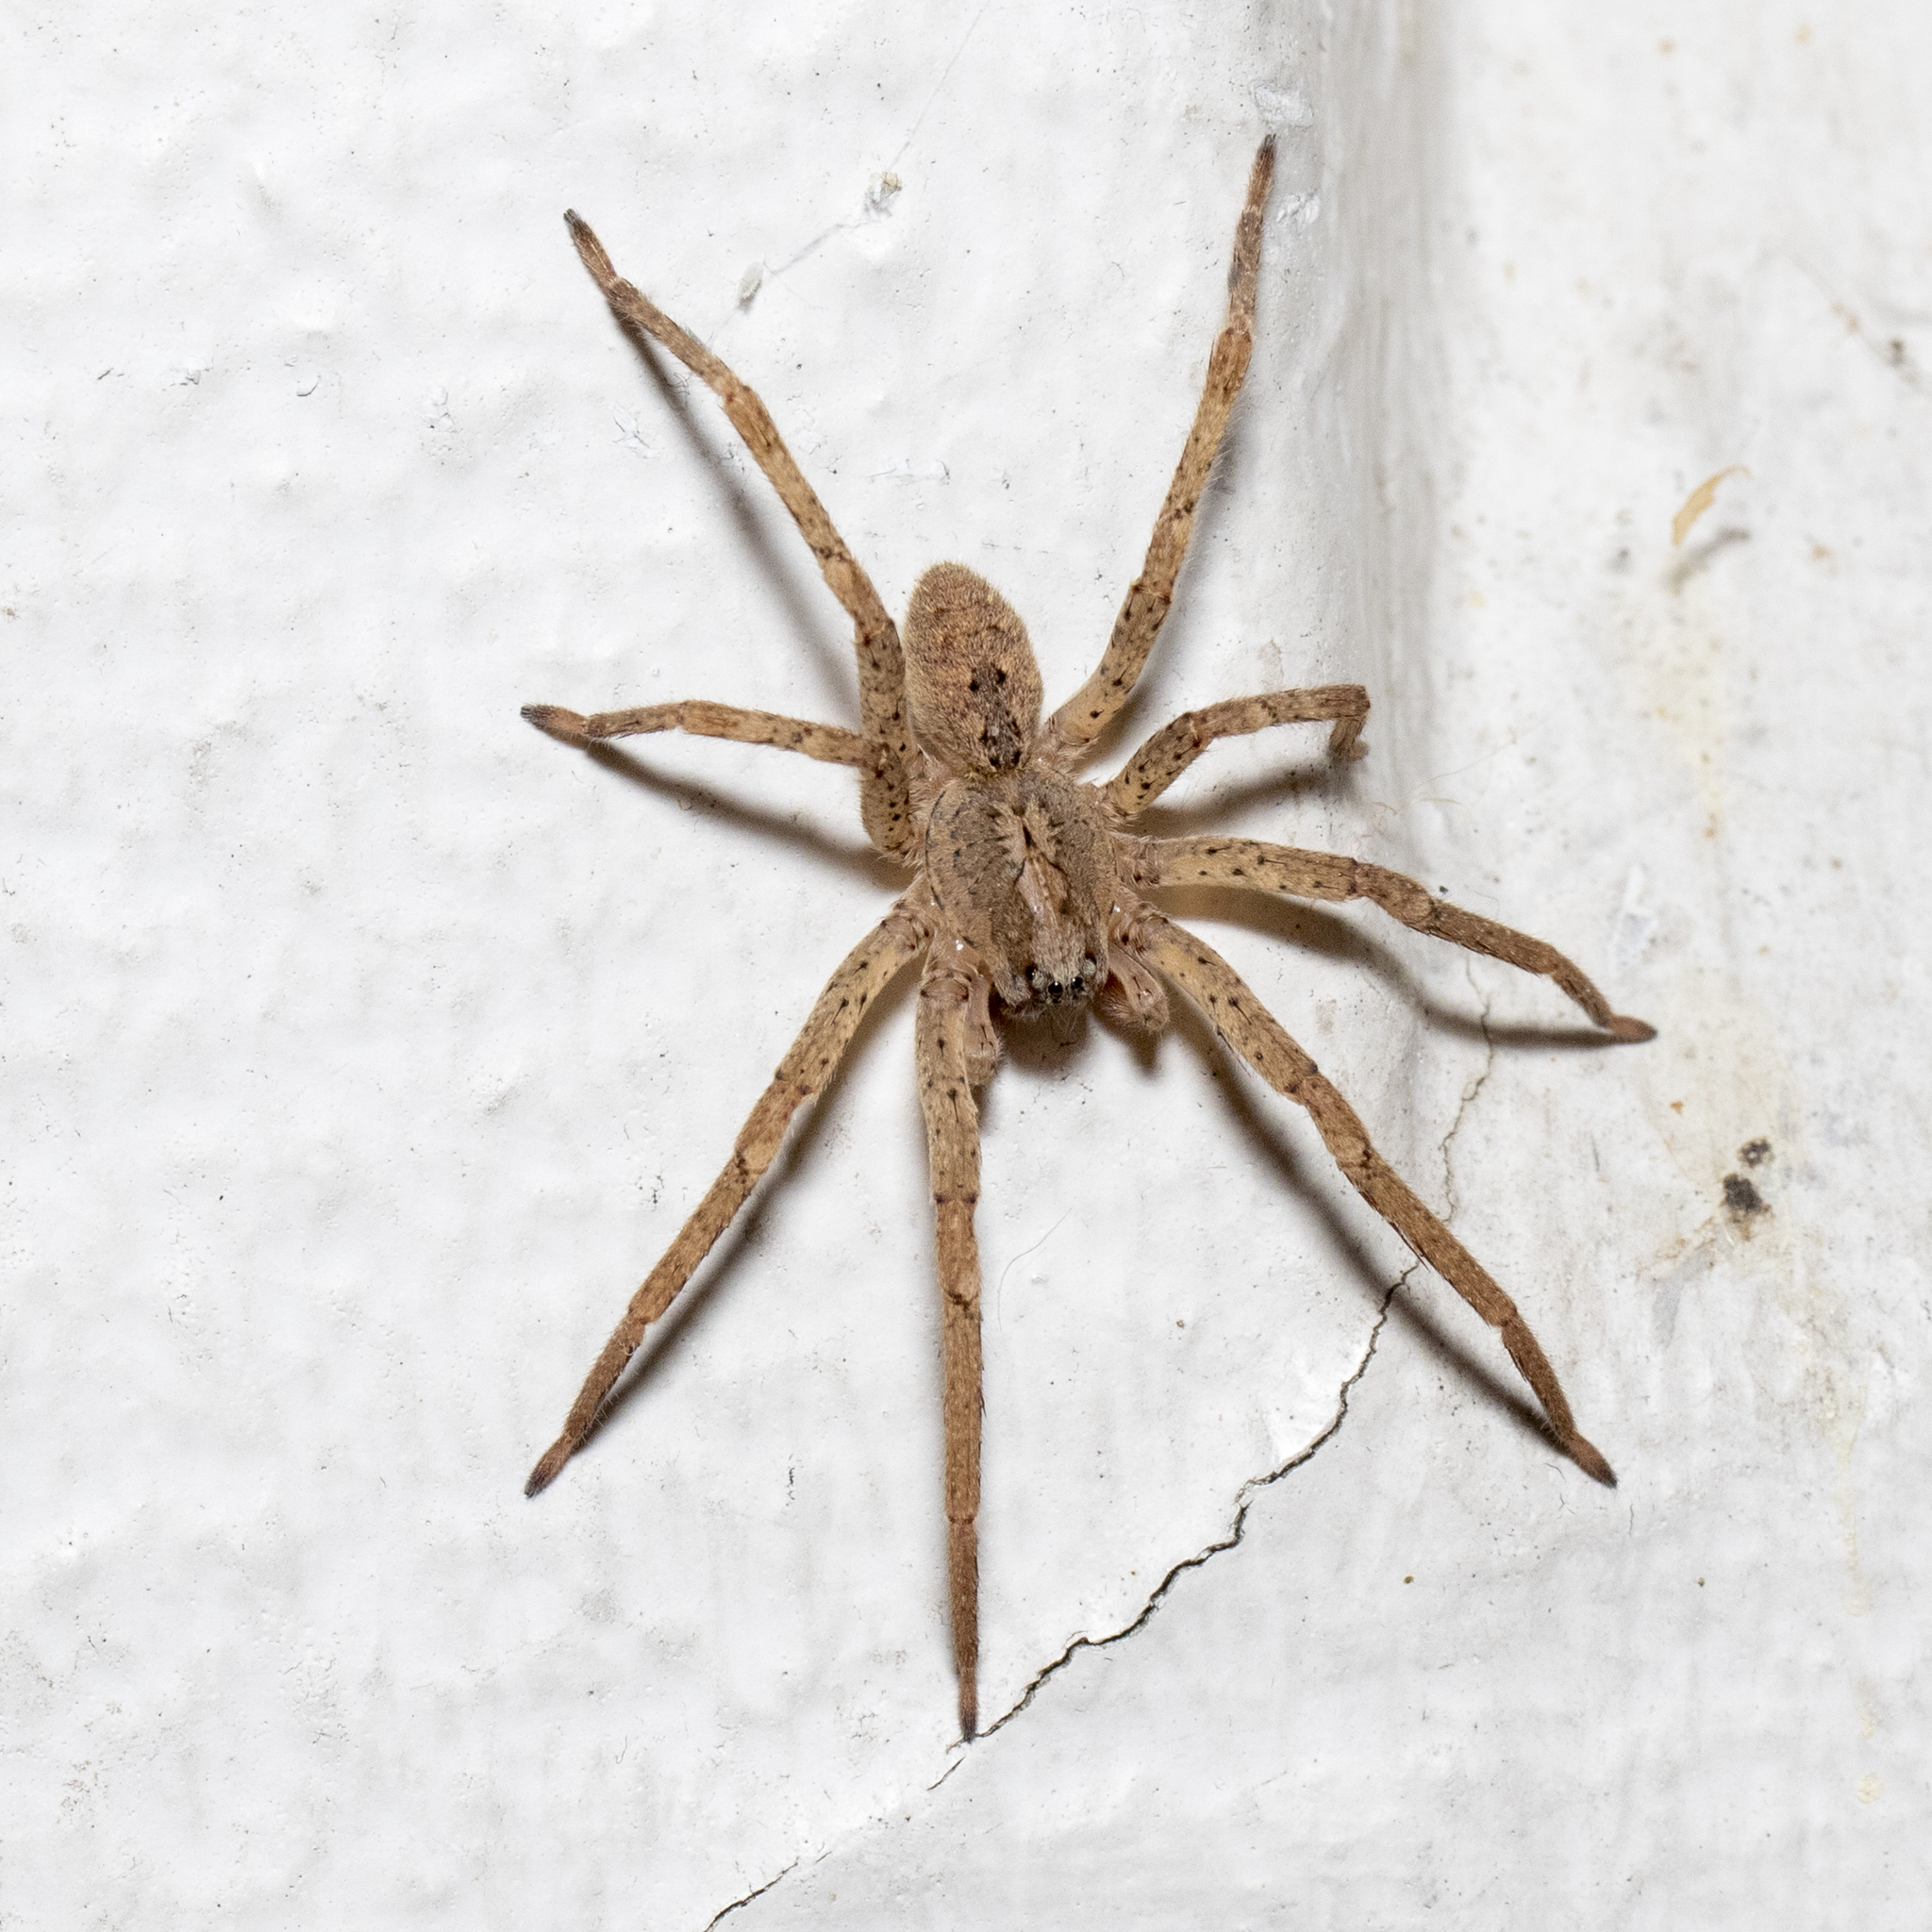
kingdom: Animalia
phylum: Arthropoda
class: Arachnida
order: Araneae
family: Zoropsidae
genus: Zoropsis
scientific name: Zoropsis spinimana
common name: Zoropsid spider
